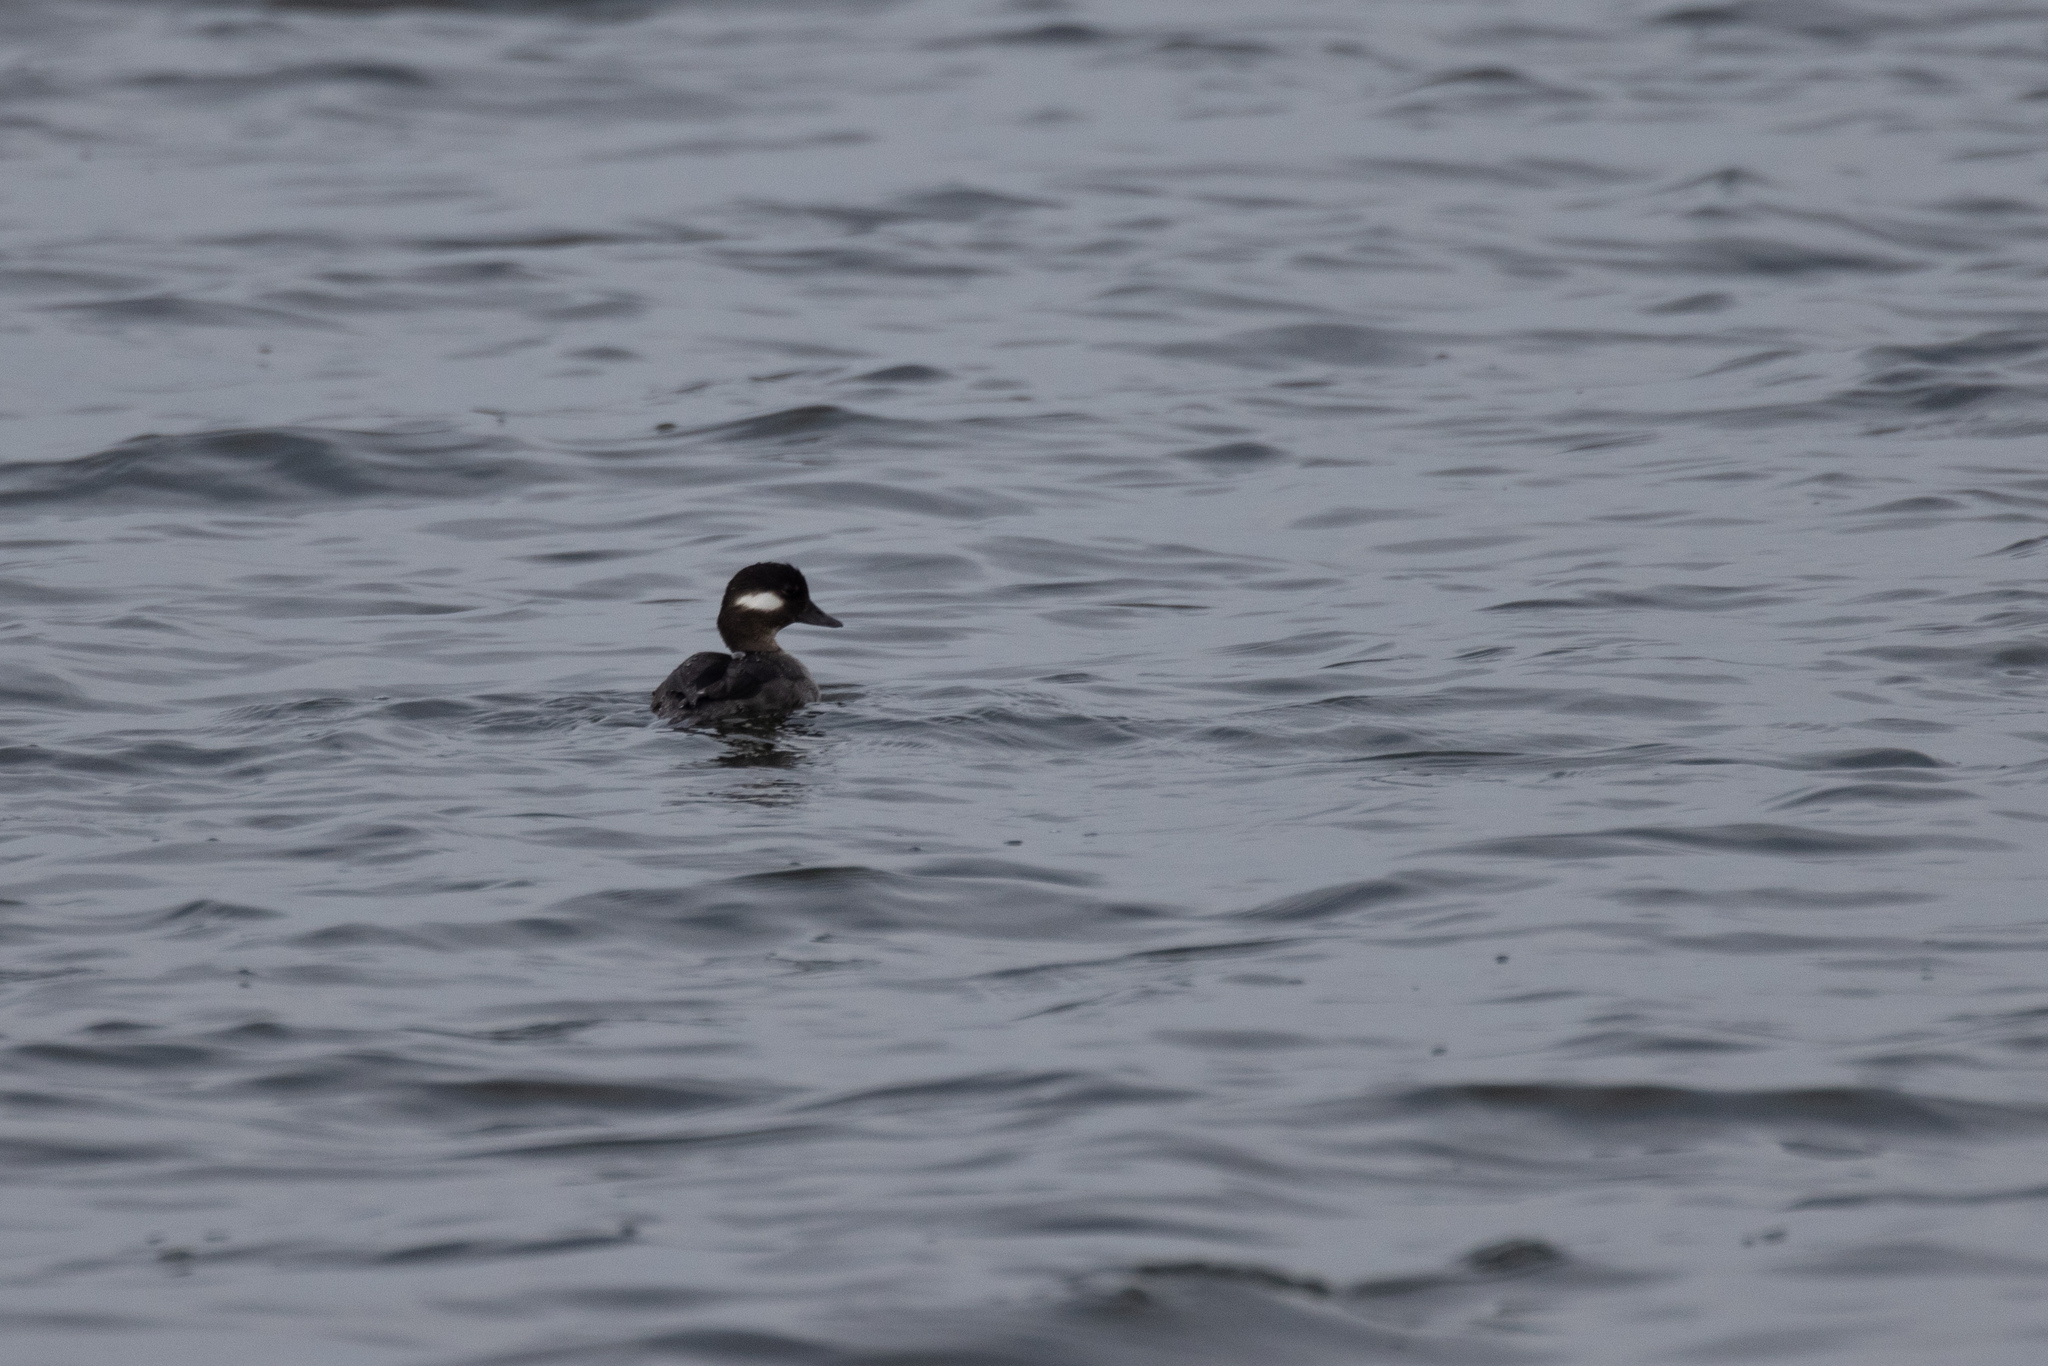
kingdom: Animalia
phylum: Chordata
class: Aves
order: Anseriformes
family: Anatidae
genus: Bucephala
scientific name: Bucephala albeola
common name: Bufflehead
